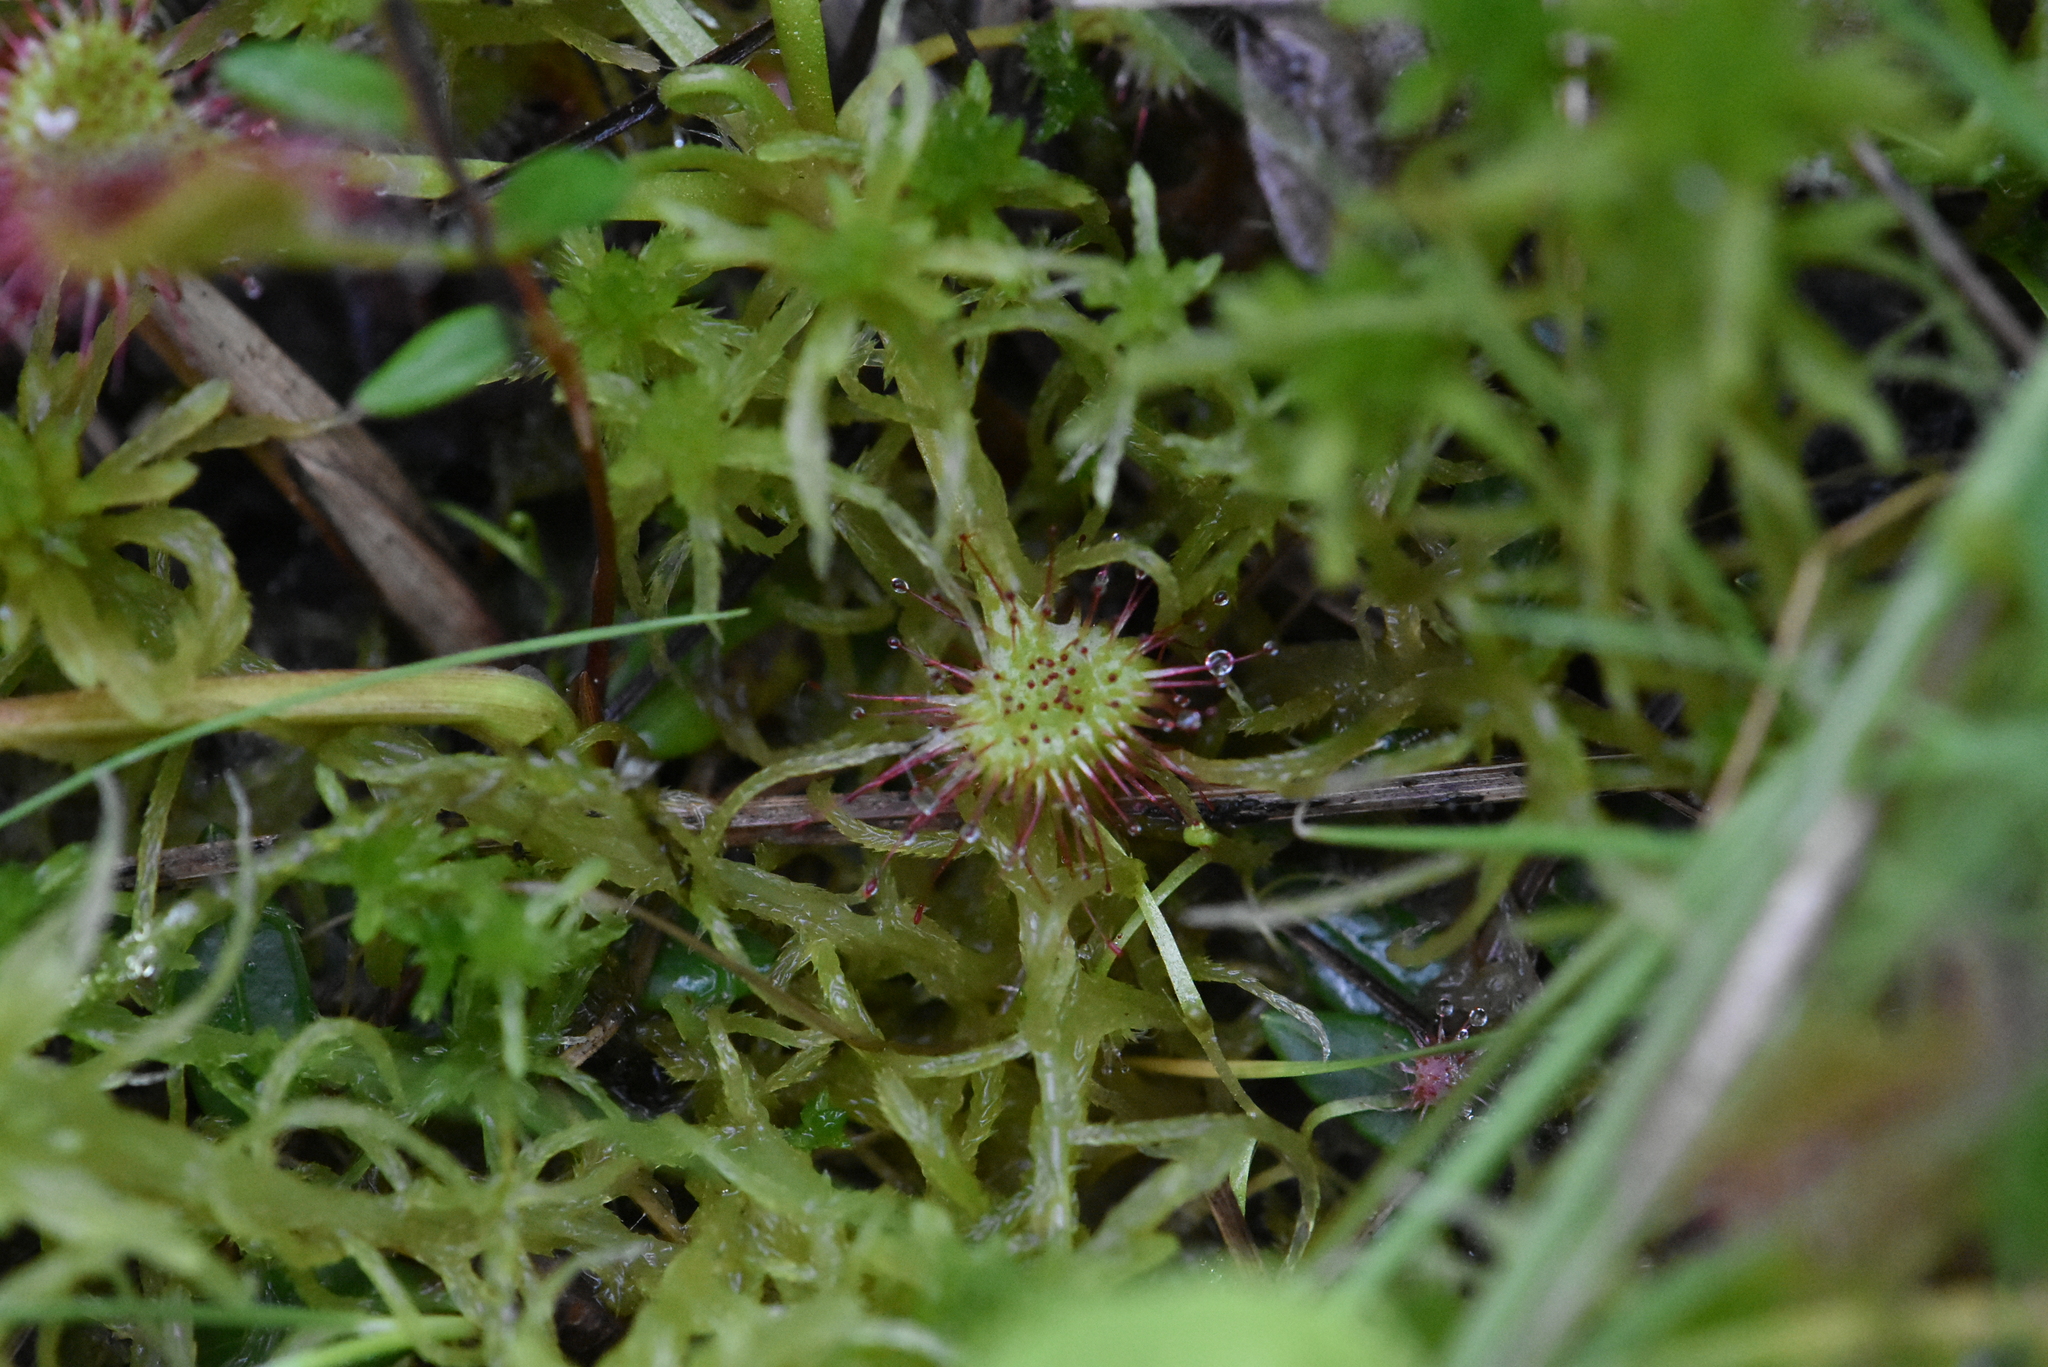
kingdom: Plantae
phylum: Tracheophyta
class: Magnoliopsida
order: Caryophyllales
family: Droseraceae
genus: Drosera
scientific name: Drosera rotundifolia
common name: Round-leaved sundew
